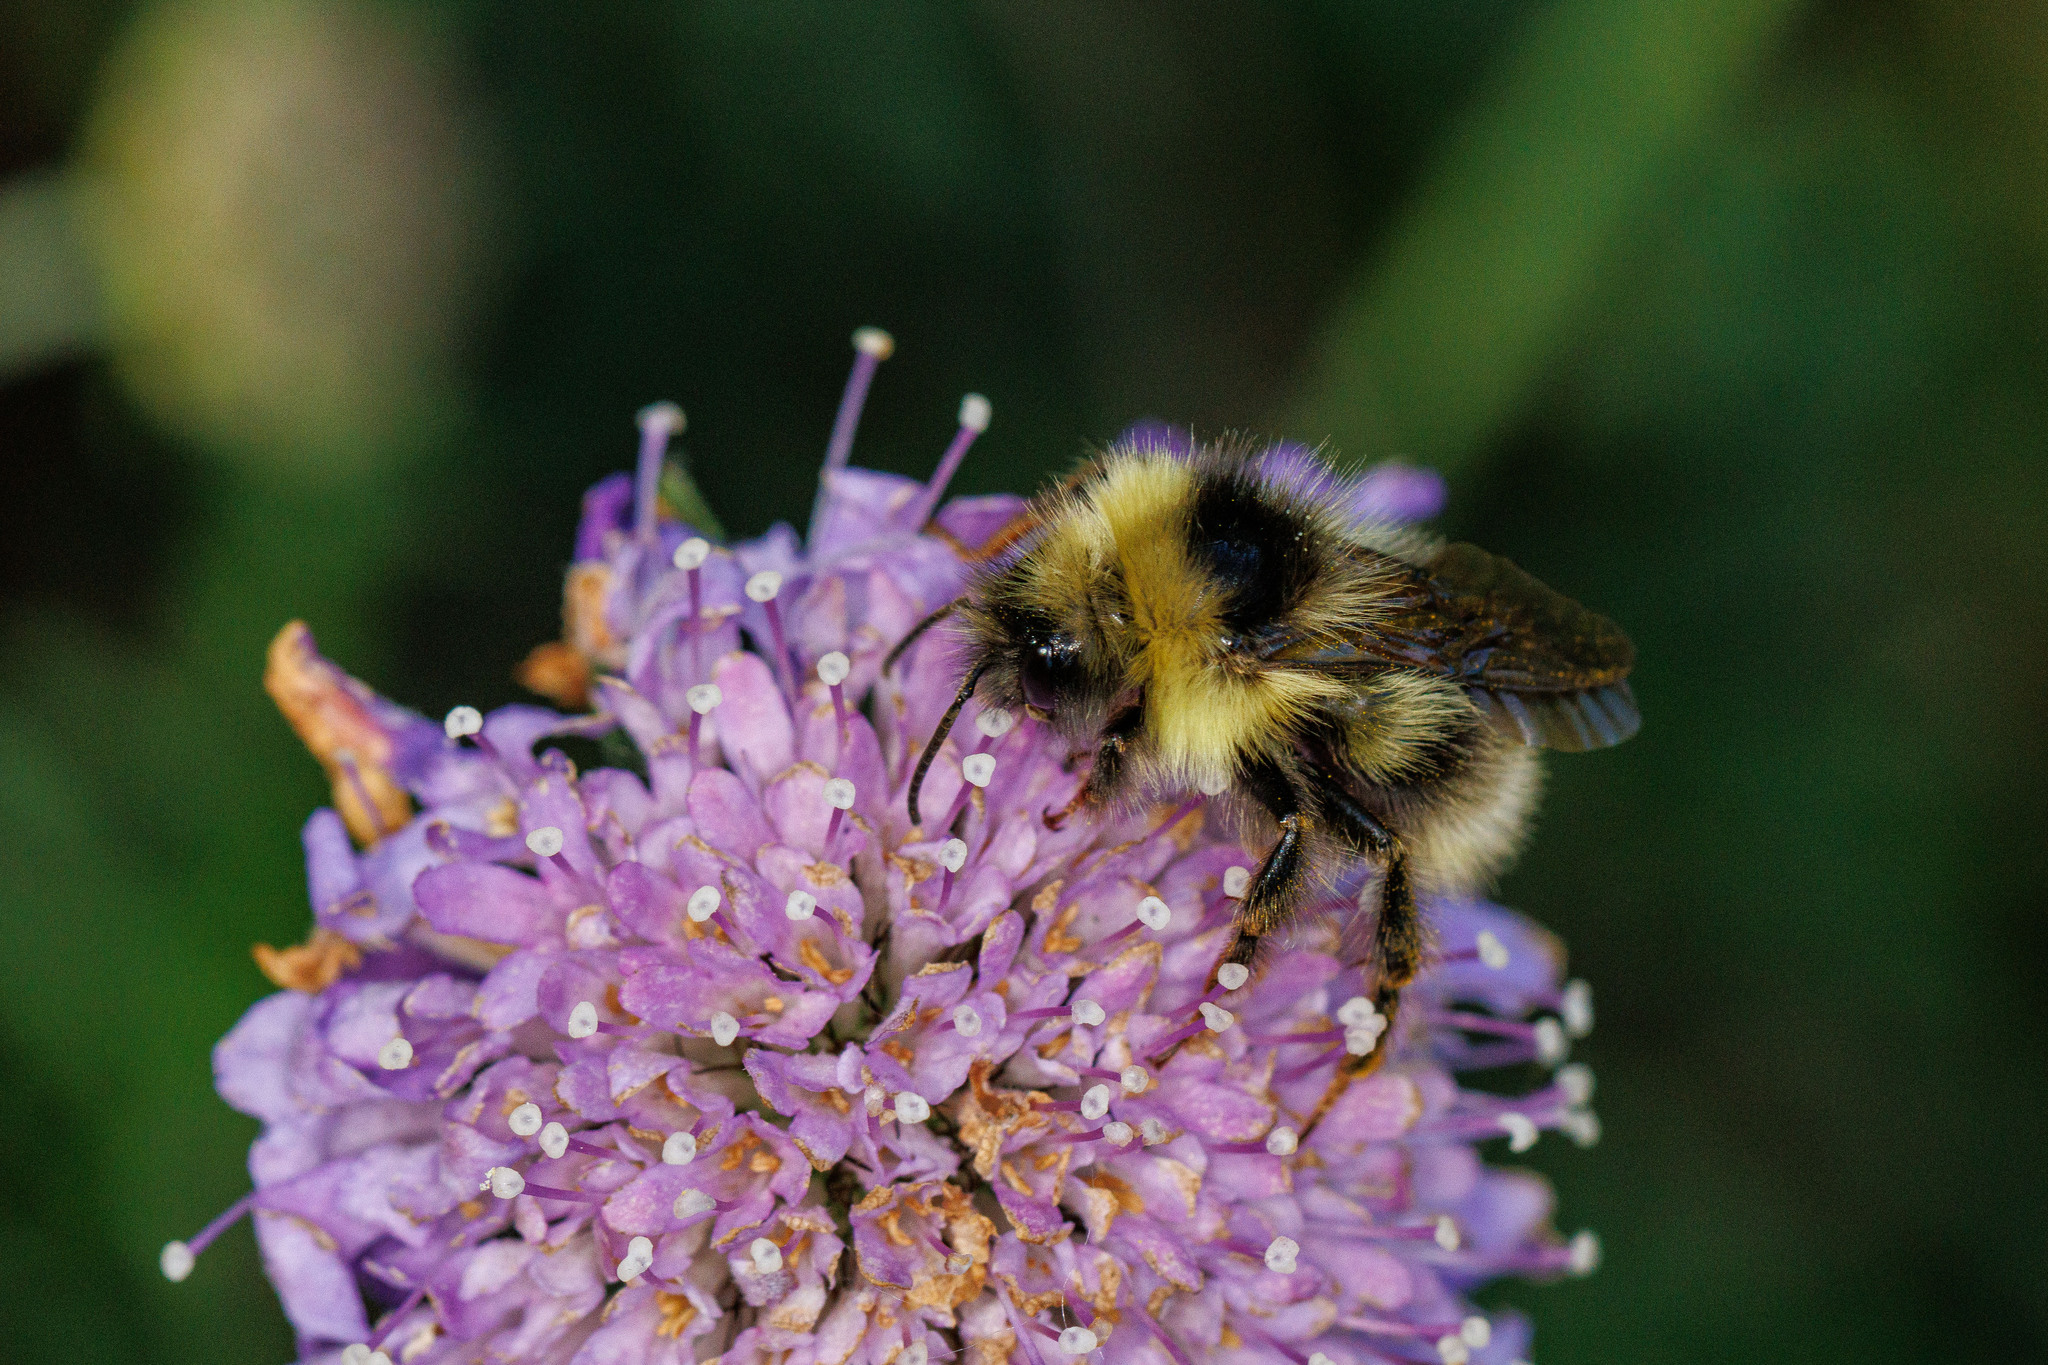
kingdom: Animalia
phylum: Arthropoda
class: Insecta
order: Hymenoptera
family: Apidae
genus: Bombus
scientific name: Bombus flavidus
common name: Fernald cuckoo bumble bee
